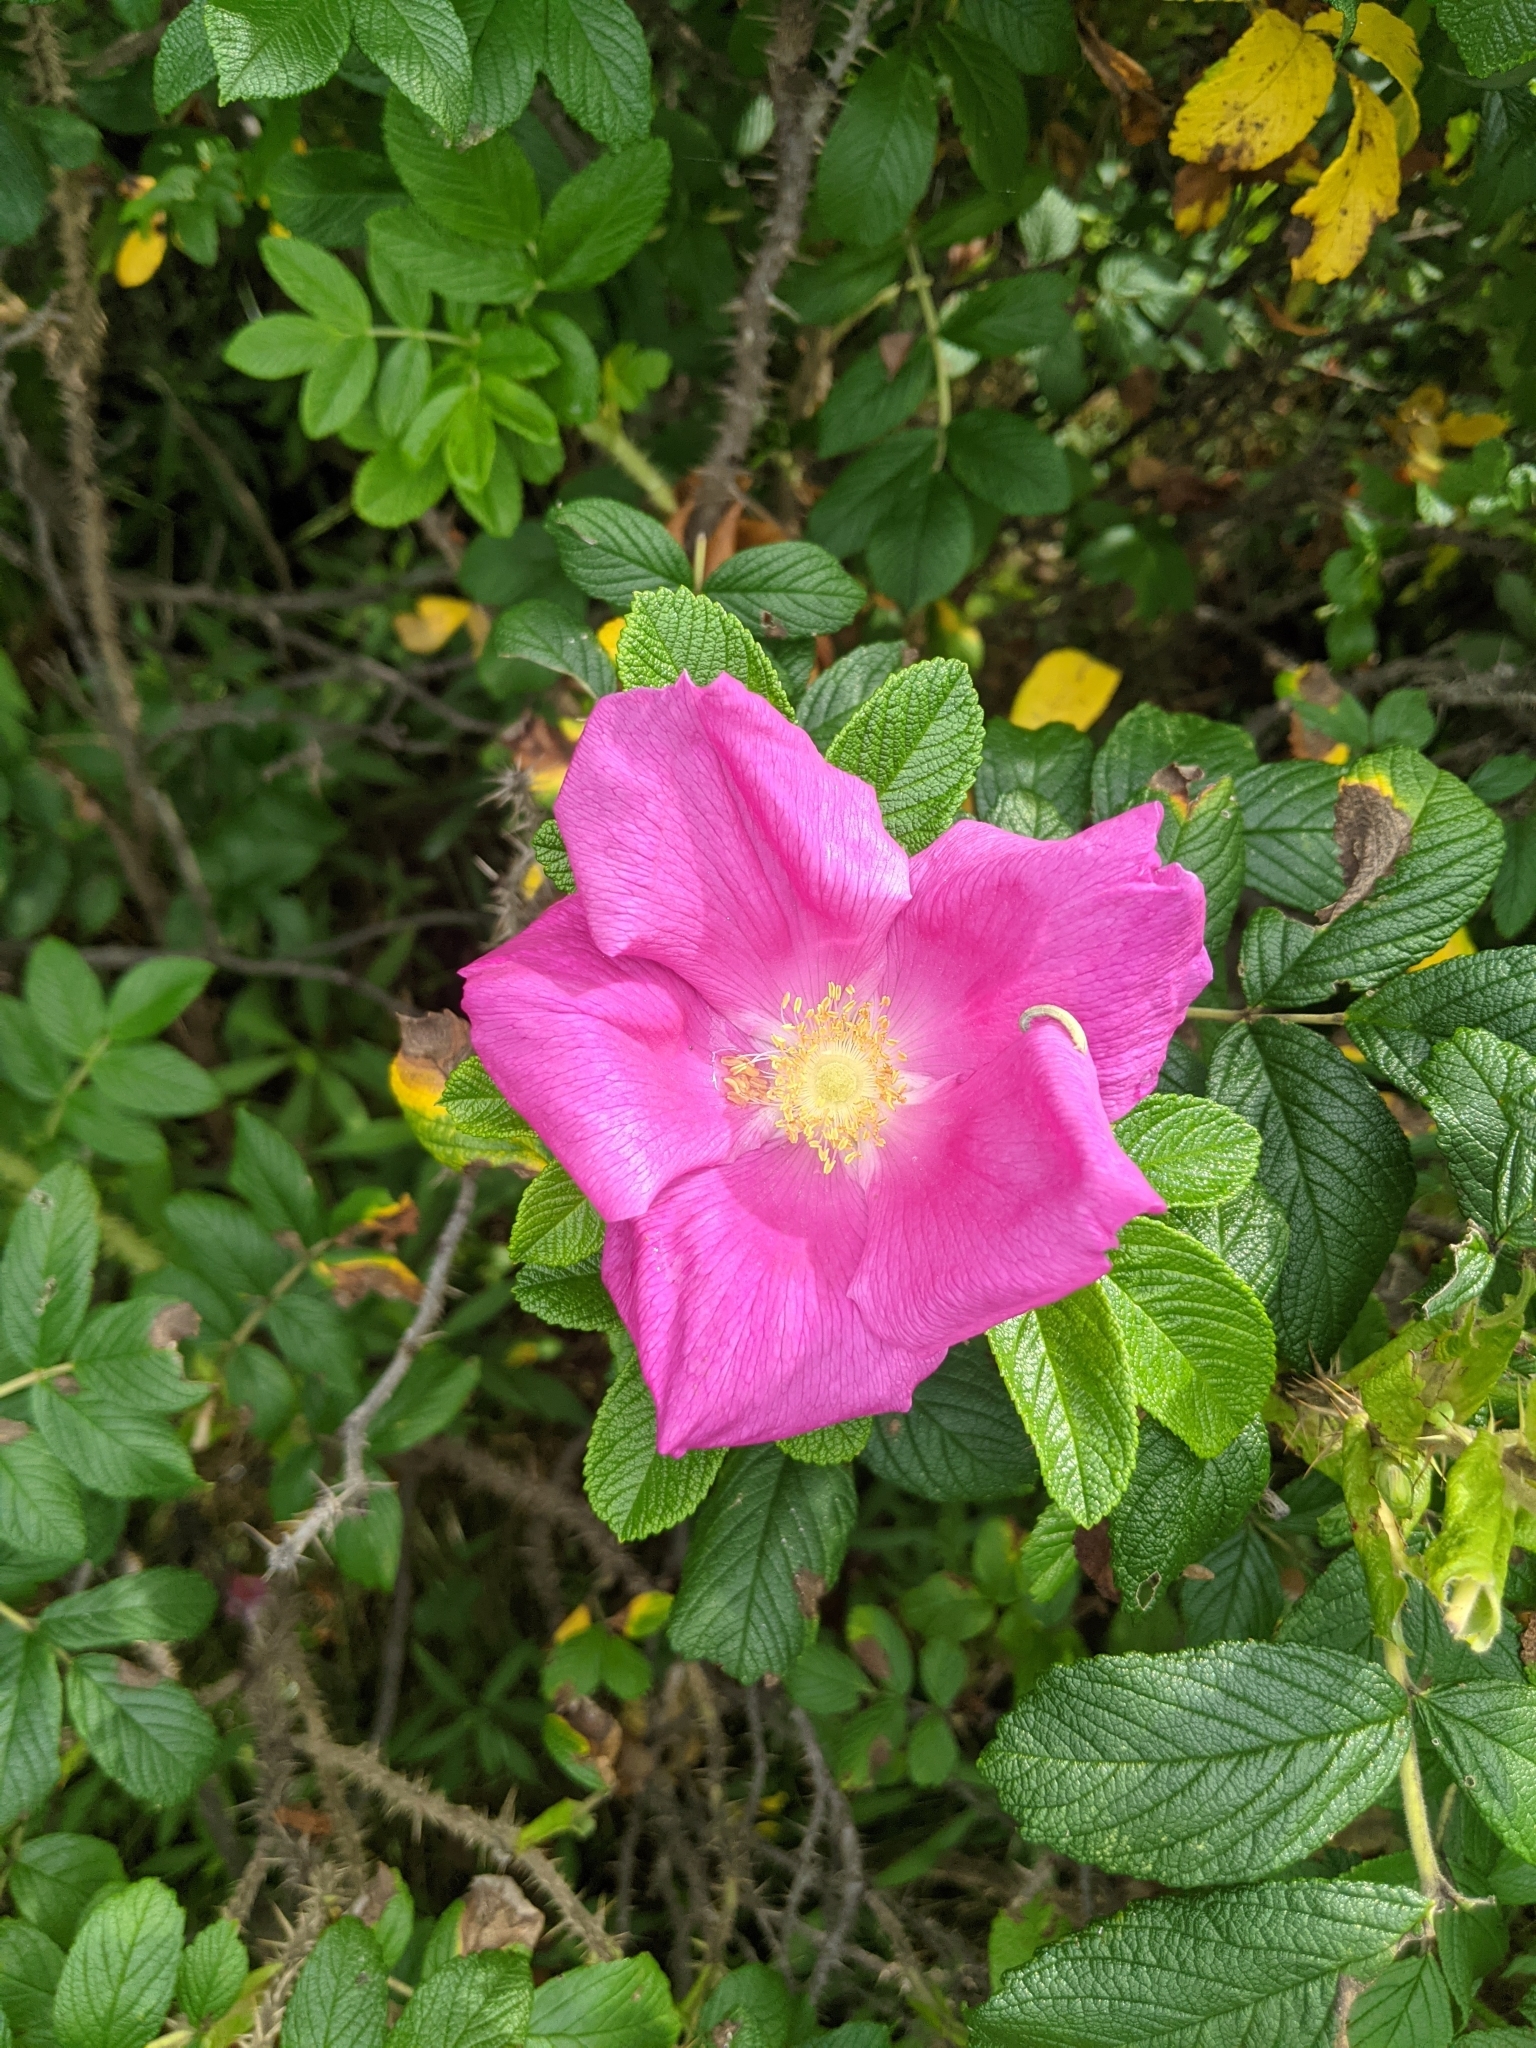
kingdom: Plantae
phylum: Tracheophyta
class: Magnoliopsida
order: Rosales
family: Rosaceae
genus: Rosa
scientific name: Rosa rugosa
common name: Japanese rose
